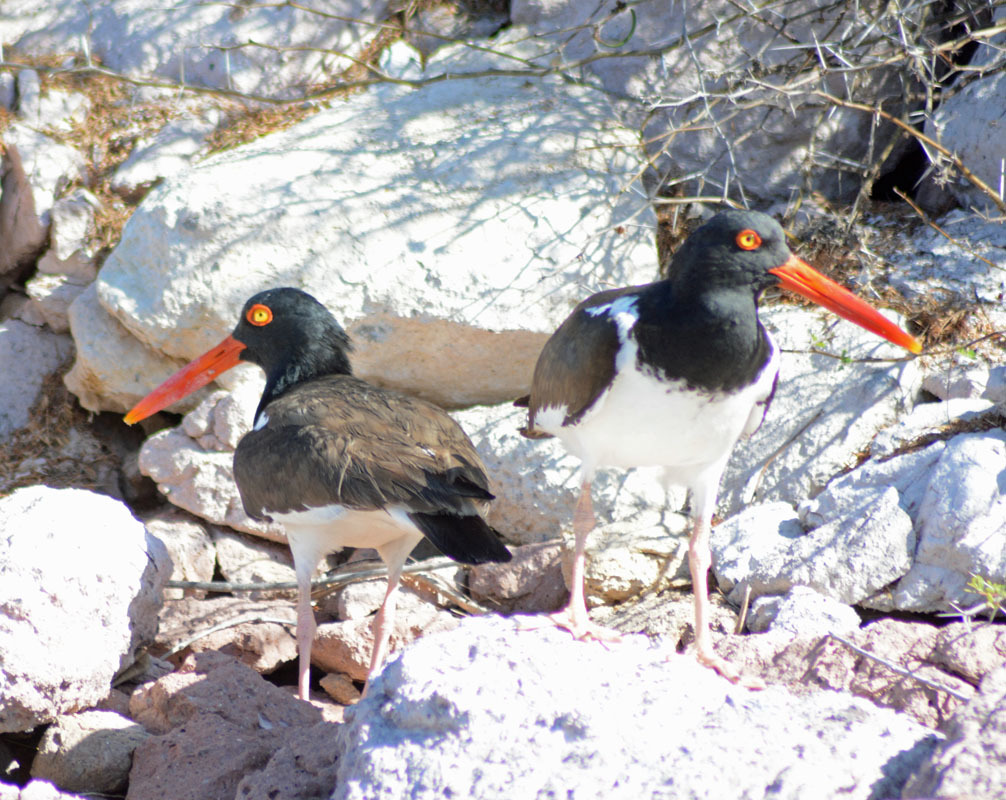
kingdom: Animalia
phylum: Chordata
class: Aves
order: Charadriiformes
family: Haematopodidae
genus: Haematopus
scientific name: Haematopus palliatus
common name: American oystercatcher
